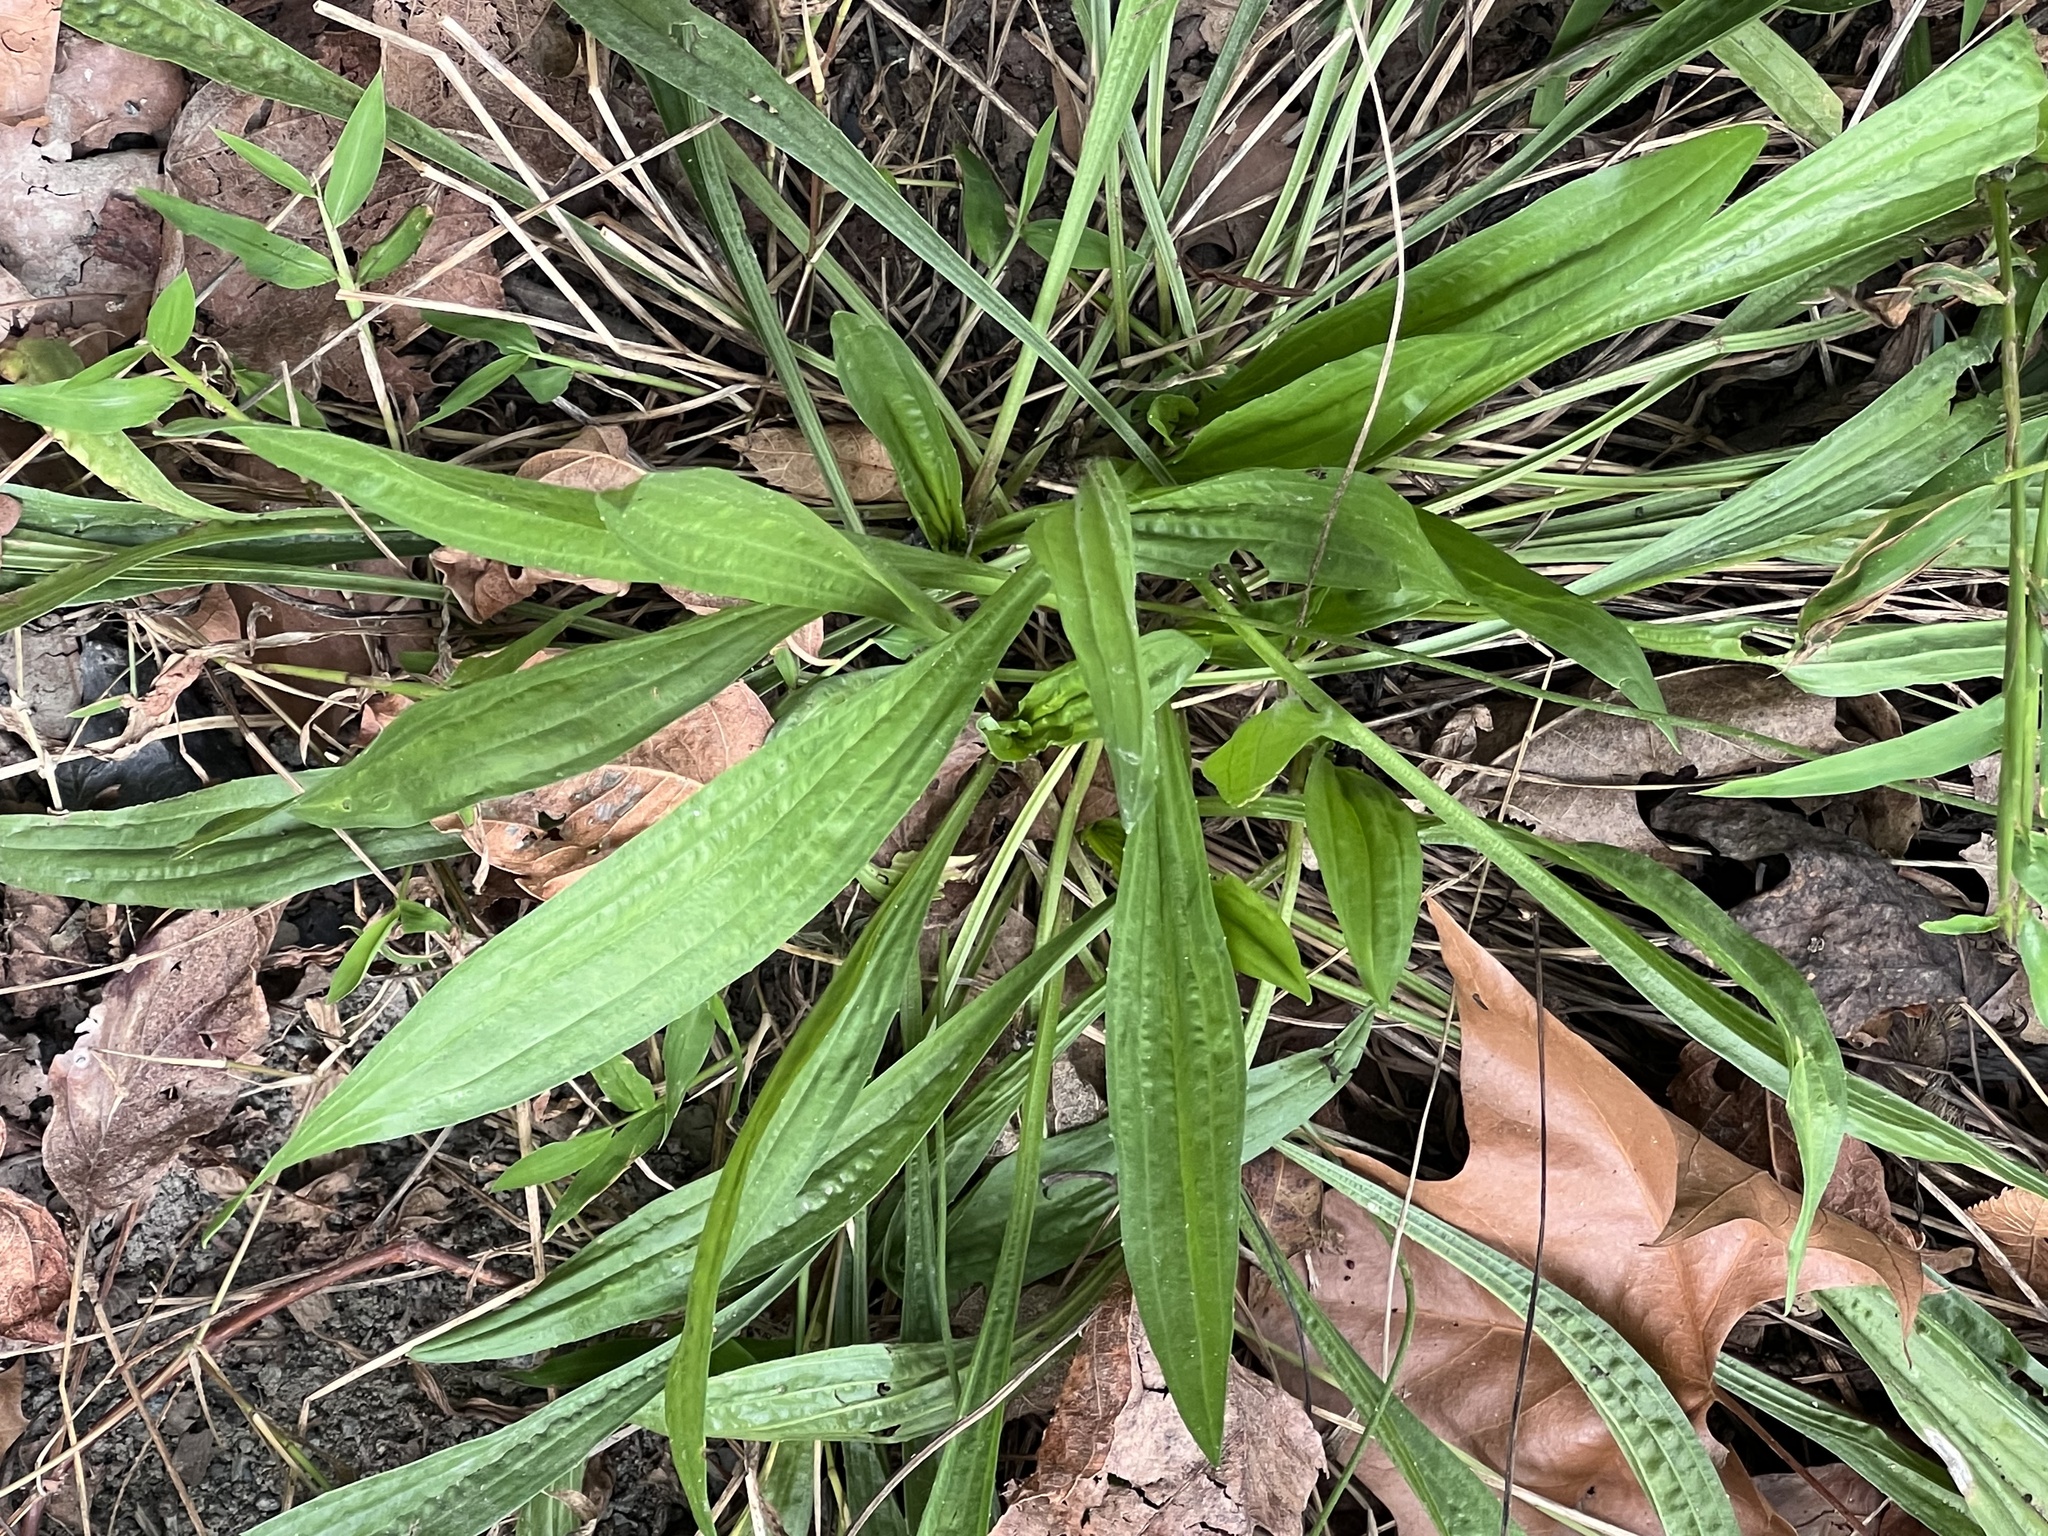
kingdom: Plantae
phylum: Tracheophyta
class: Magnoliopsida
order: Lamiales
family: Plantaginaceae
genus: Plantago
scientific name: Plantago lanceolata
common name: Ribwort plantain
